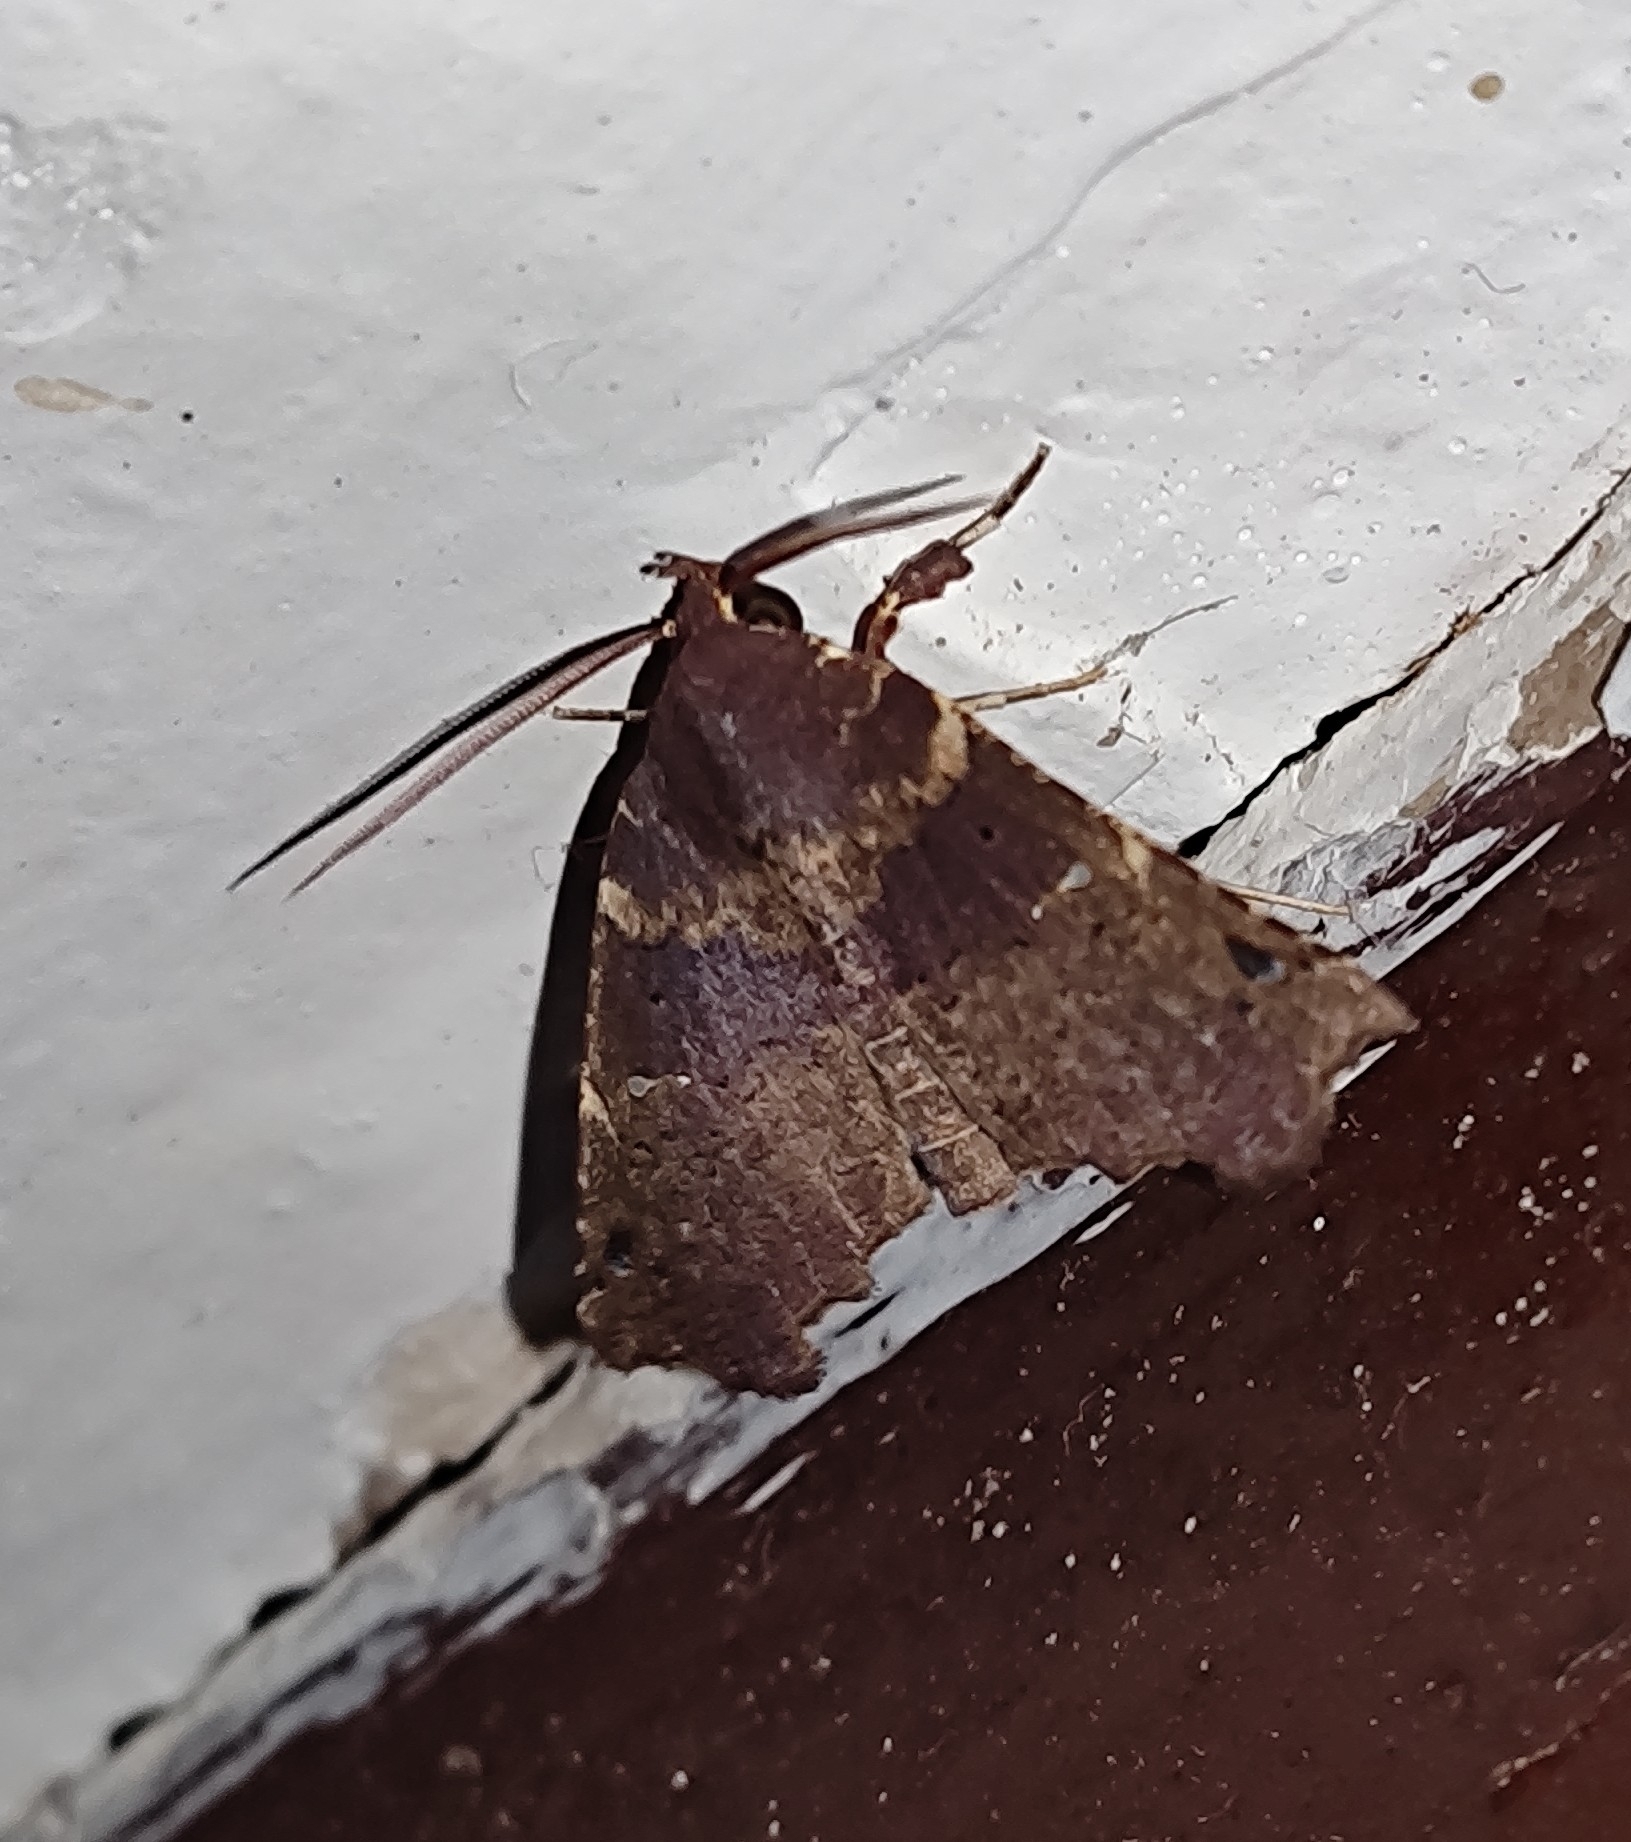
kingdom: Animalia
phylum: Arthropoda
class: Insecta
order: Lepidoptera
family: Erebidae
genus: Falana
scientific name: Falana sordida
